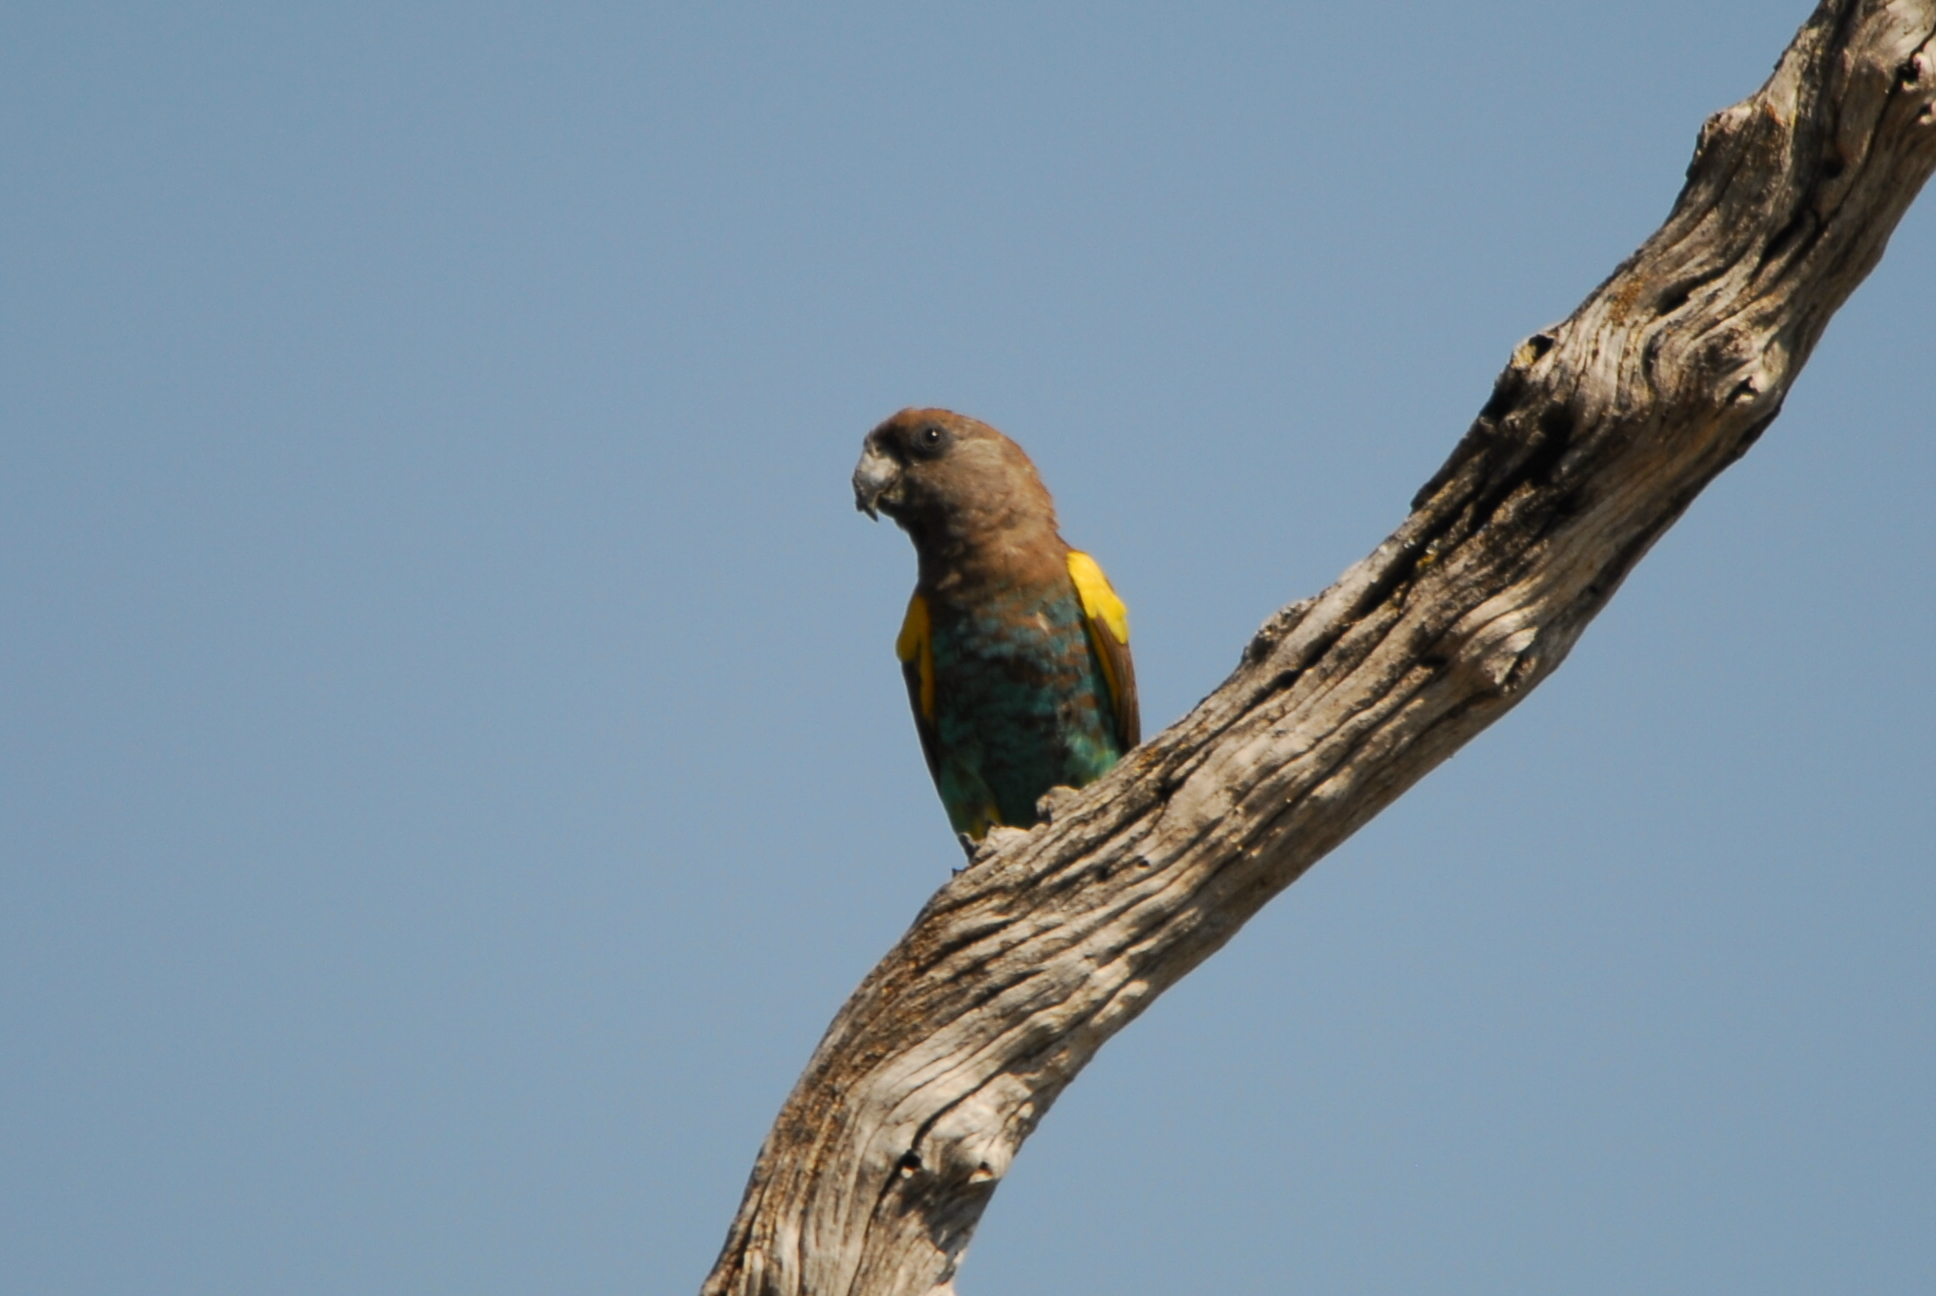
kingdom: Animalia
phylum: Chordata
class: Aves
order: Psittaciformes
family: Psittacidae
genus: Poicephalus
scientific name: Poicephalus meyeri
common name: Meyer's parrot
